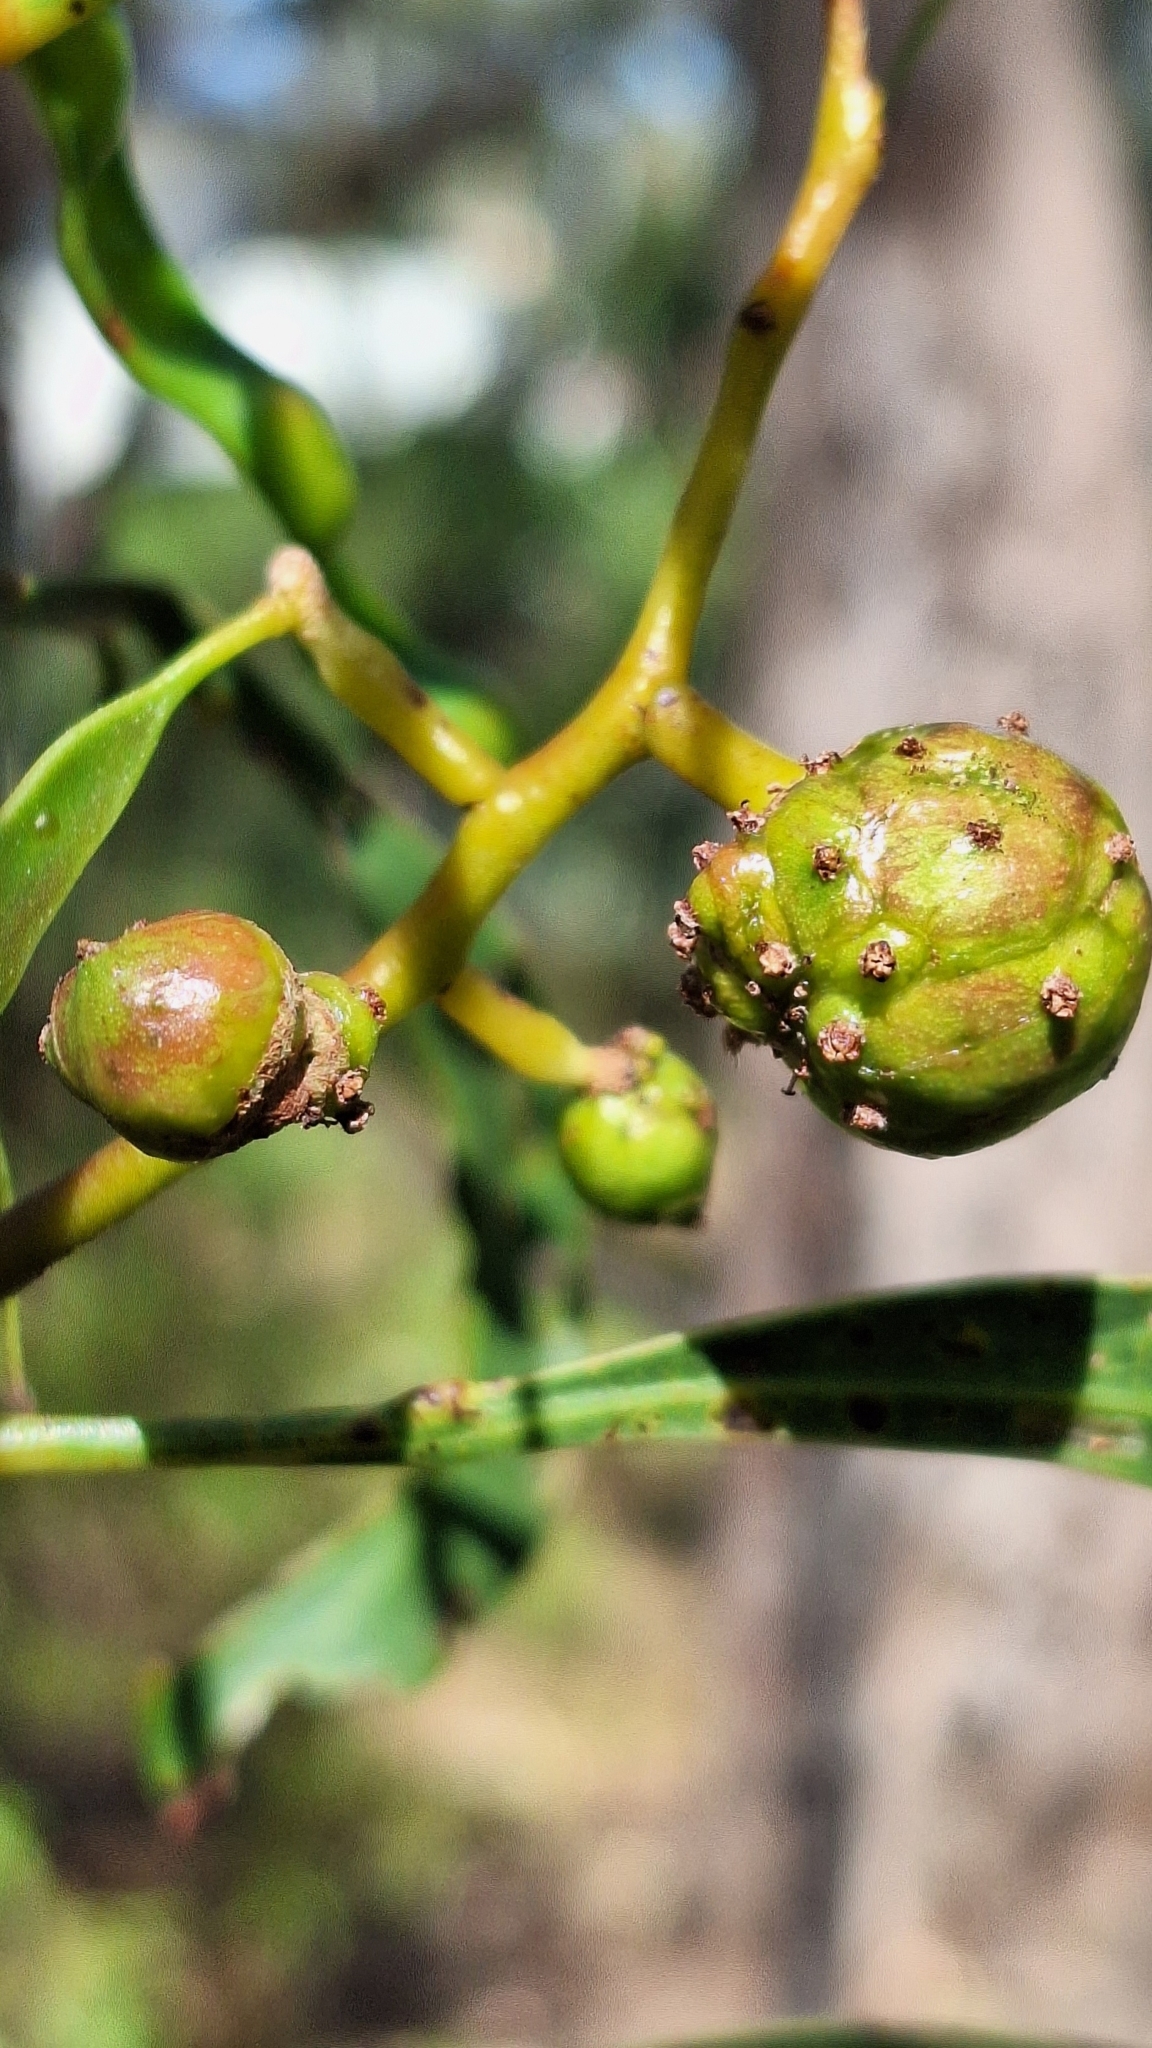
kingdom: Animalia
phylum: Arthropoda
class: Insecta
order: Hymenoptera
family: Pteromalidae
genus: Trichilogaster
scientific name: Trichilogaster signiventris
